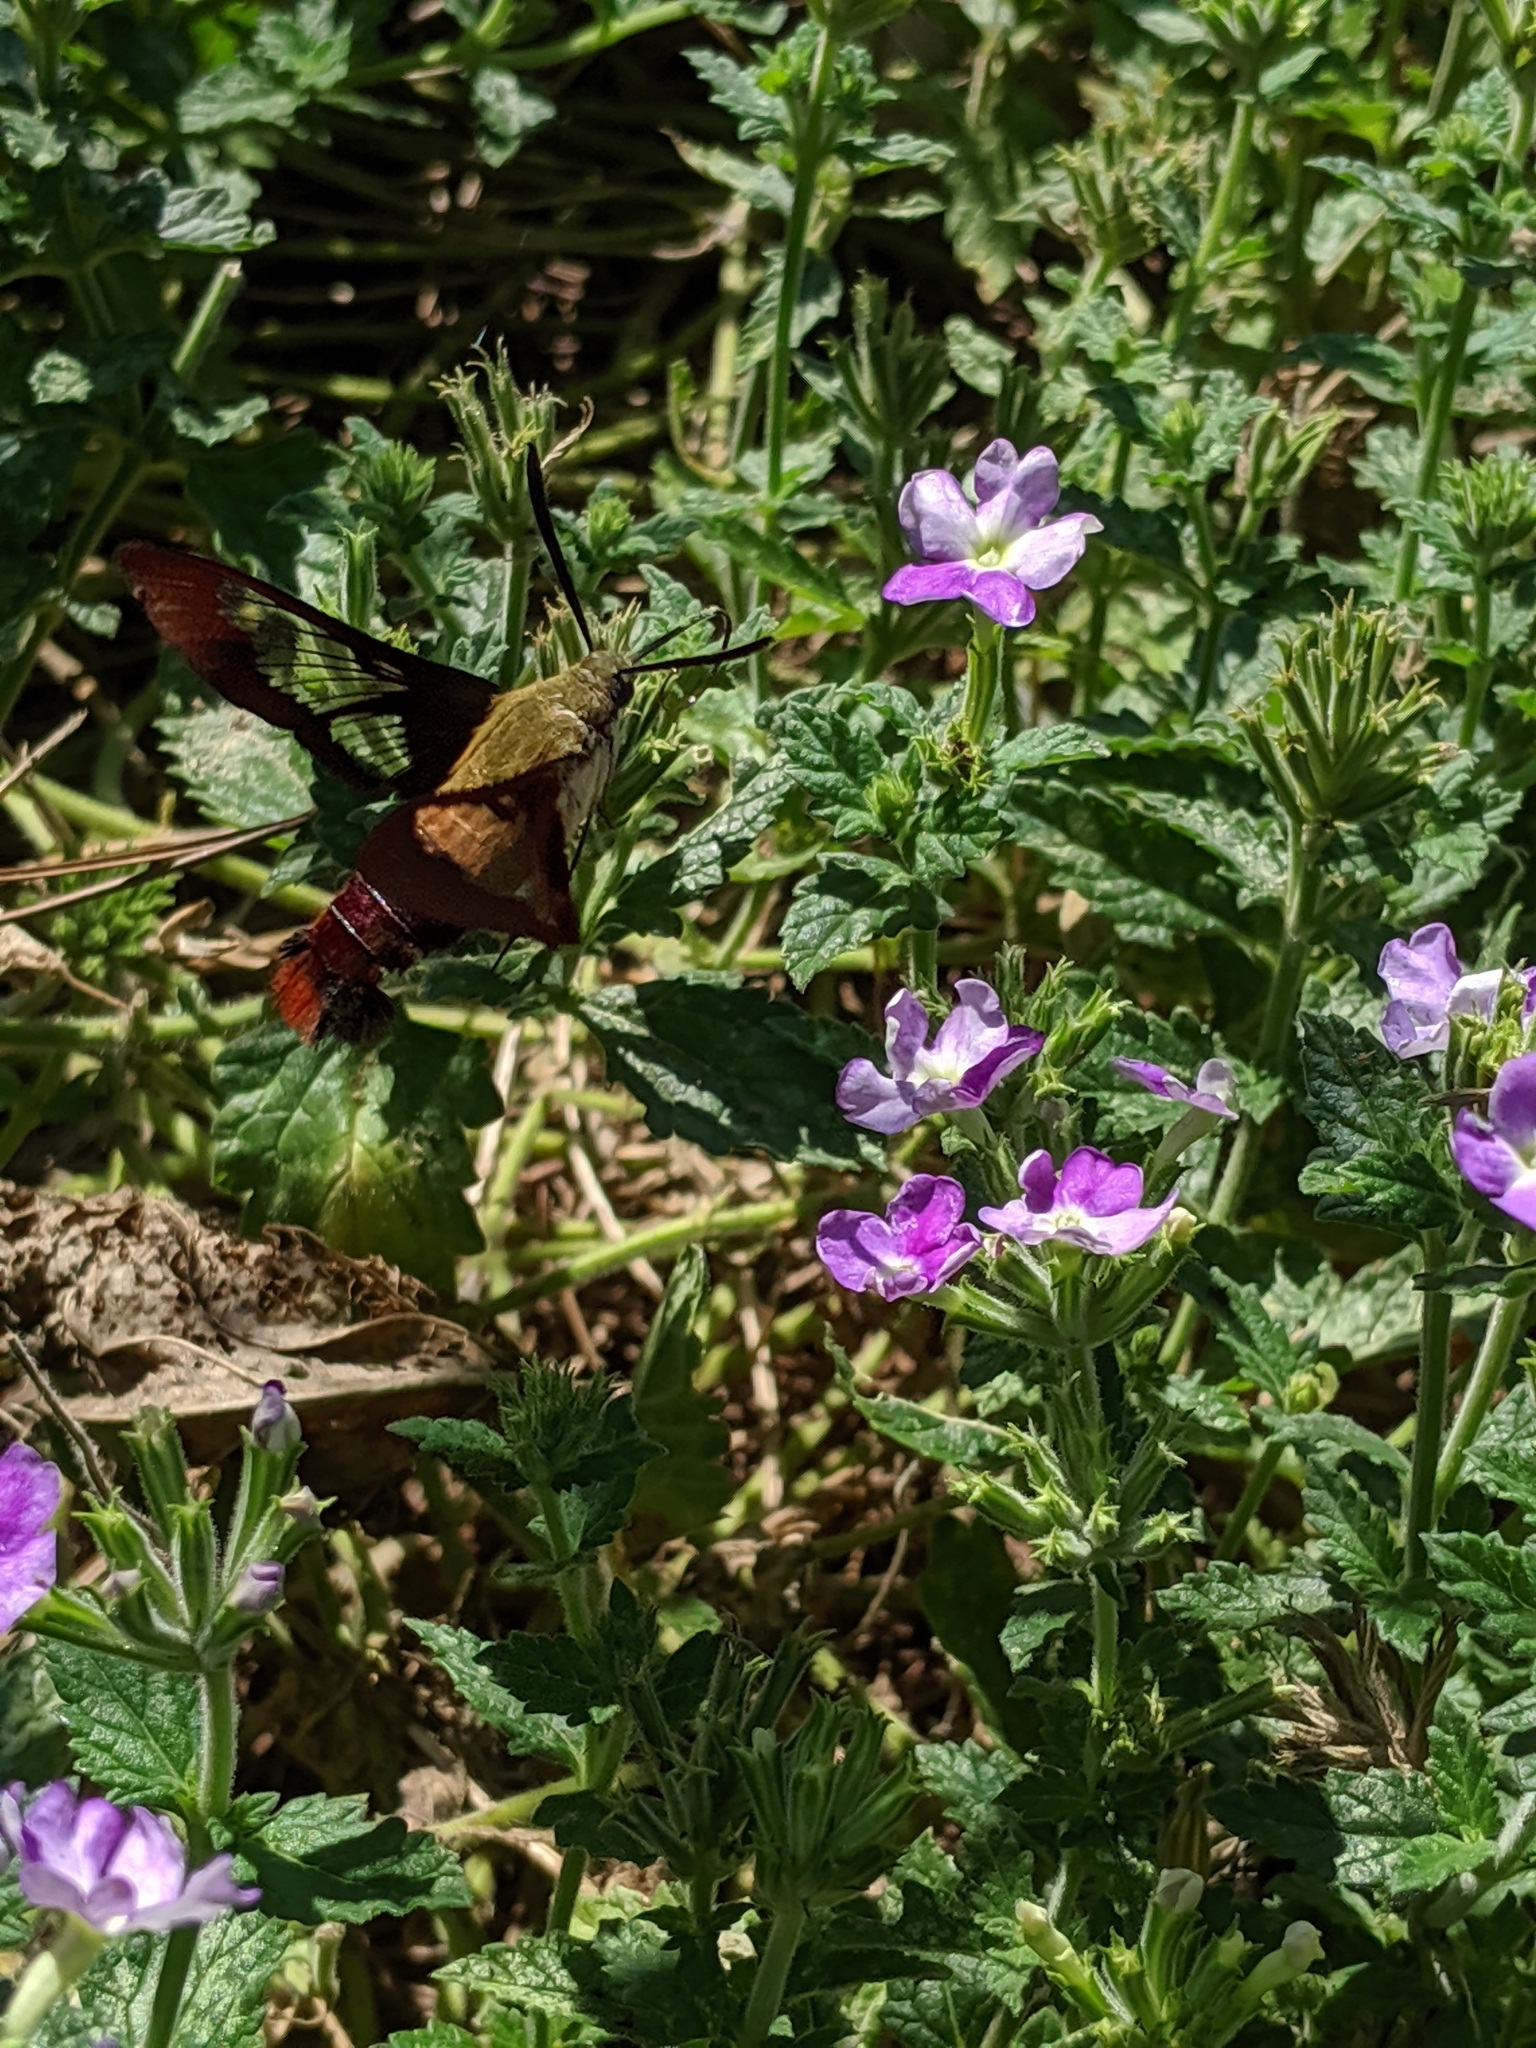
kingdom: Animalia
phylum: Arthropoda
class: Insecta
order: Lepidoptera
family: Sphingidae
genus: Hemaris
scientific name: Hemaris thysbe
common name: Common clear-wing
